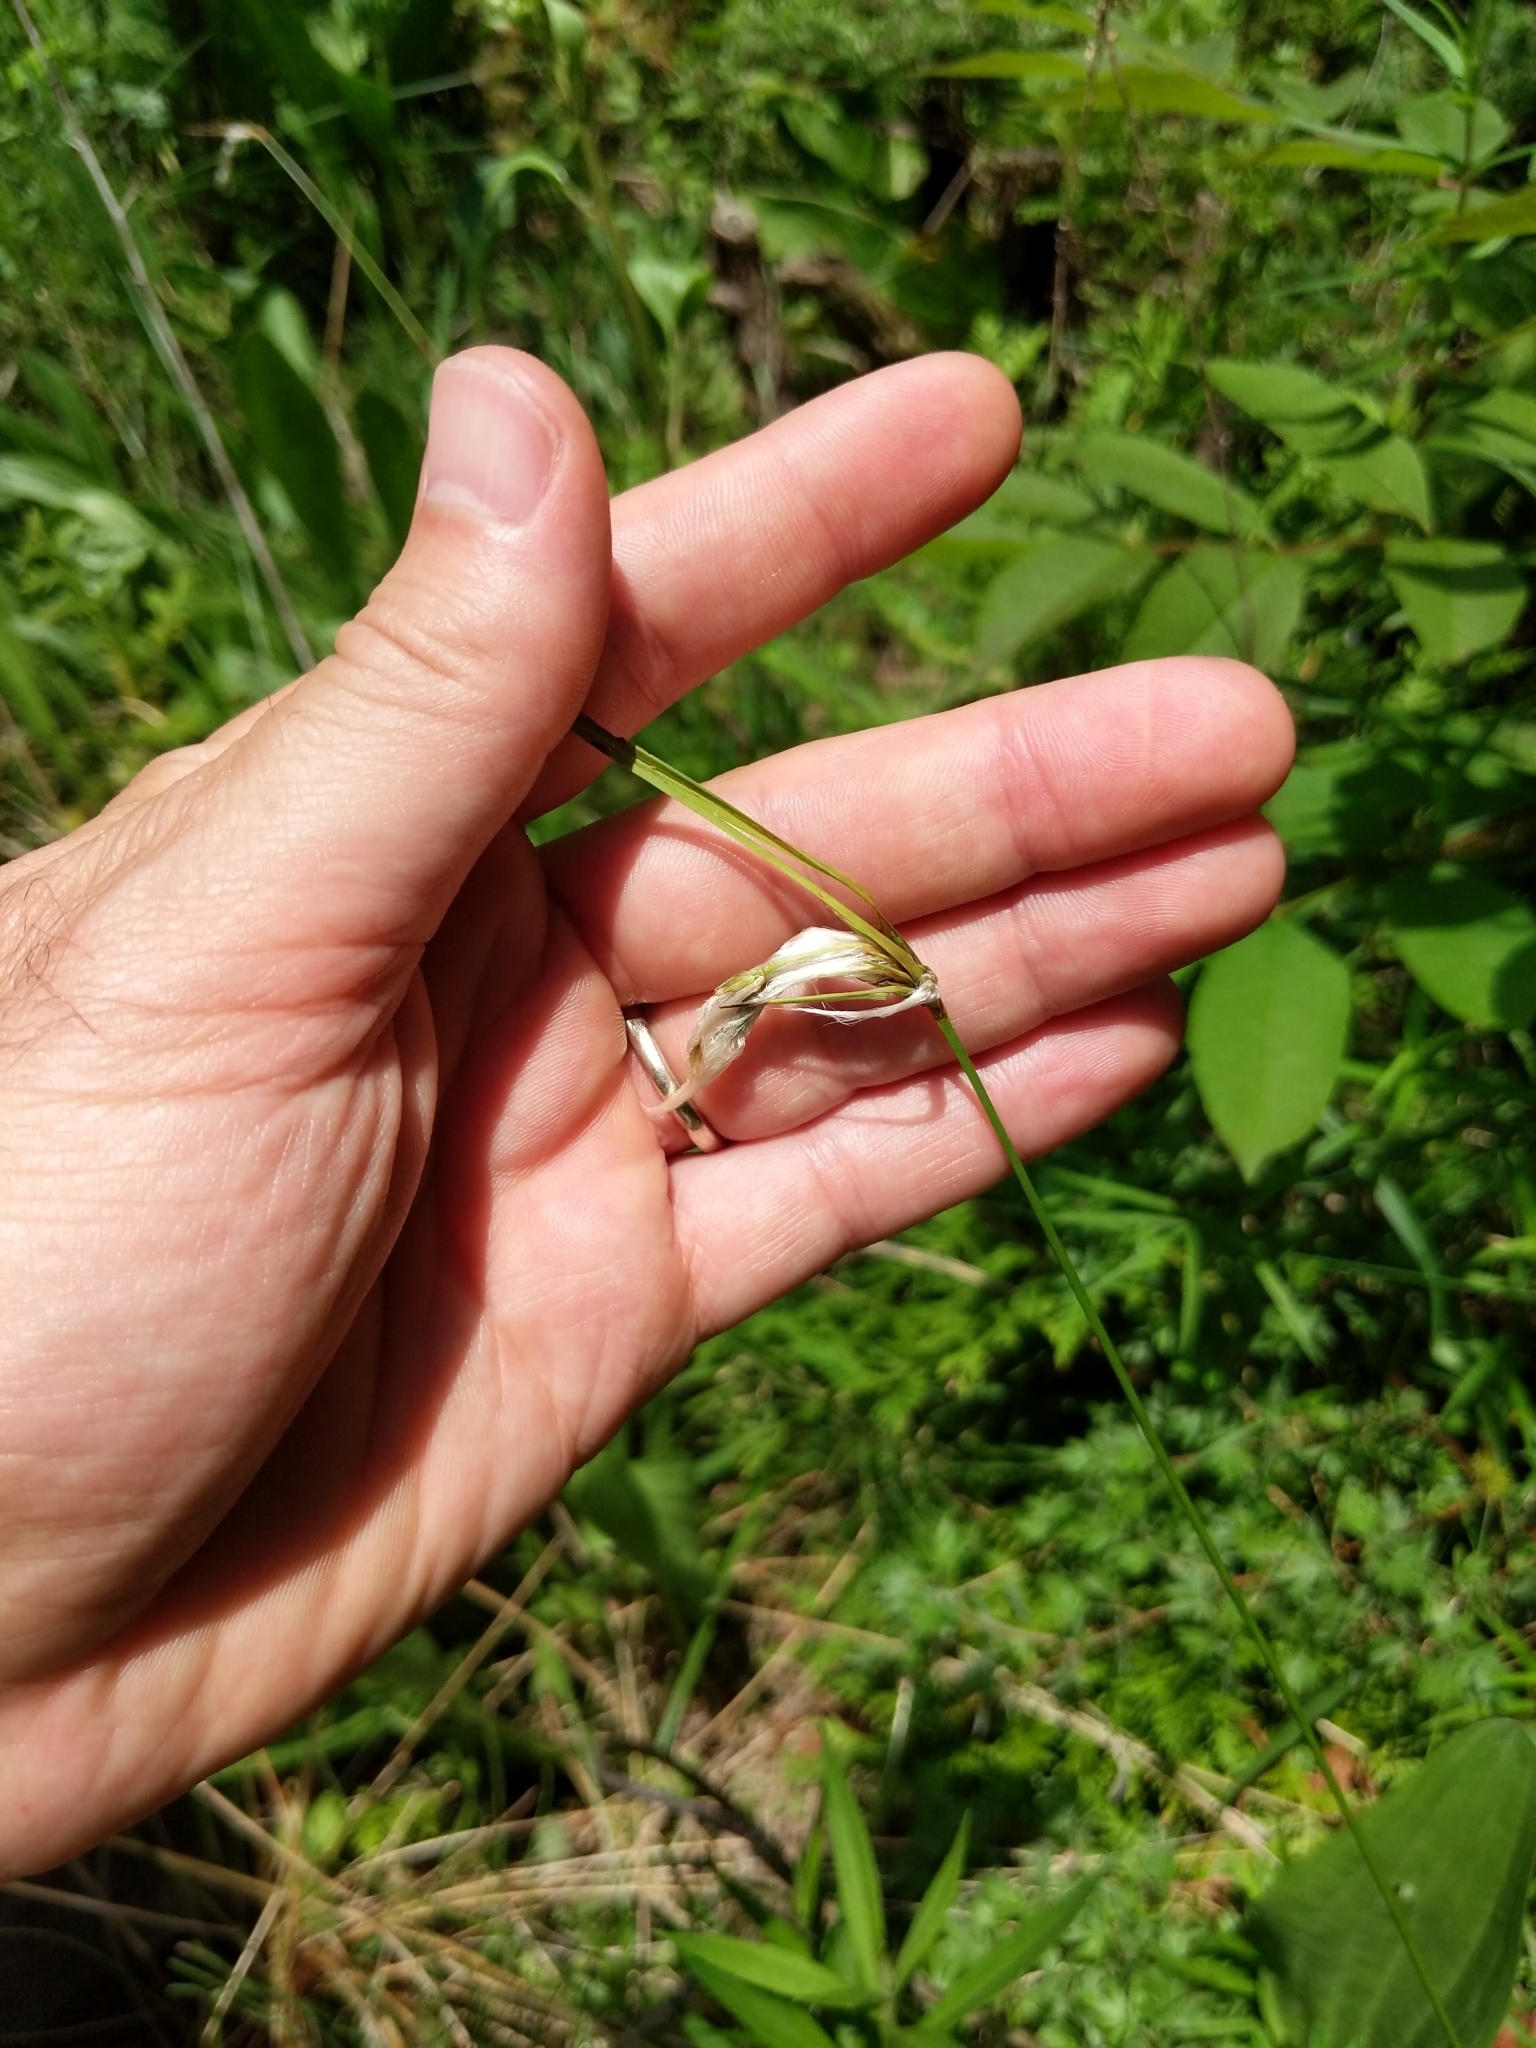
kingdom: Plantae
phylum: Tracheophyta
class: Liliopsida
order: Poales
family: Cyperaceae
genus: Eriophorum
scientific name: Eriophorum viridicarinatum
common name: Green-keeled cottongrass
